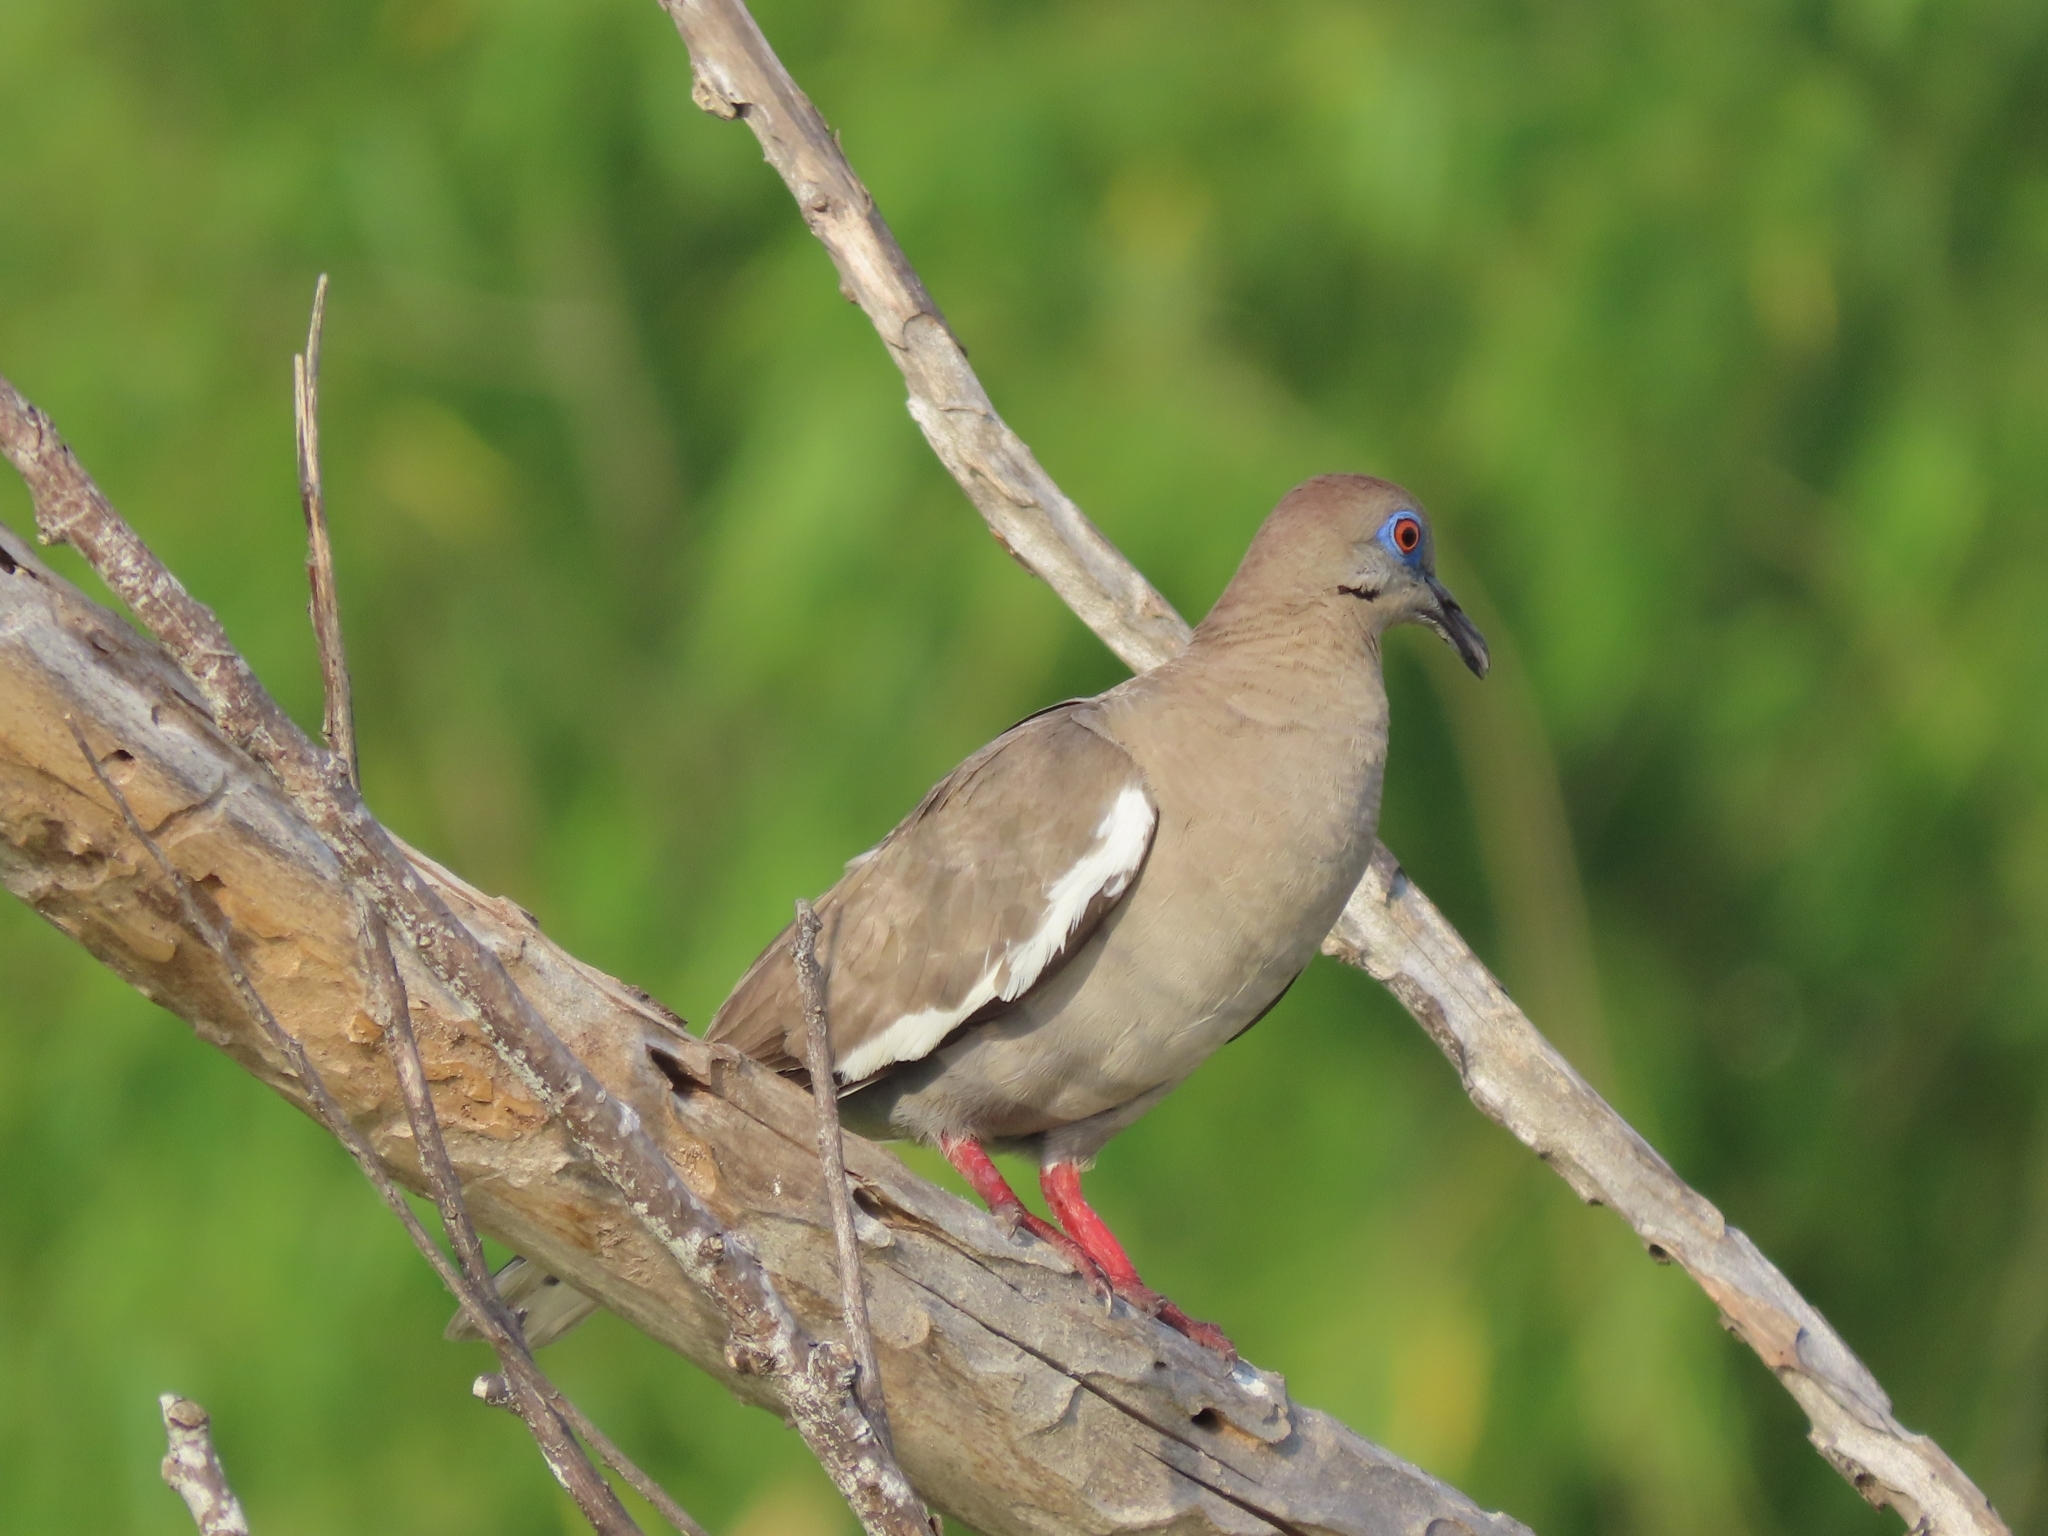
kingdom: Animalia
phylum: Chordata
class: Aves
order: Columbiformes
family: Columbidae
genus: Zenaida
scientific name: Zenaida asiatica
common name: White-winged dove
